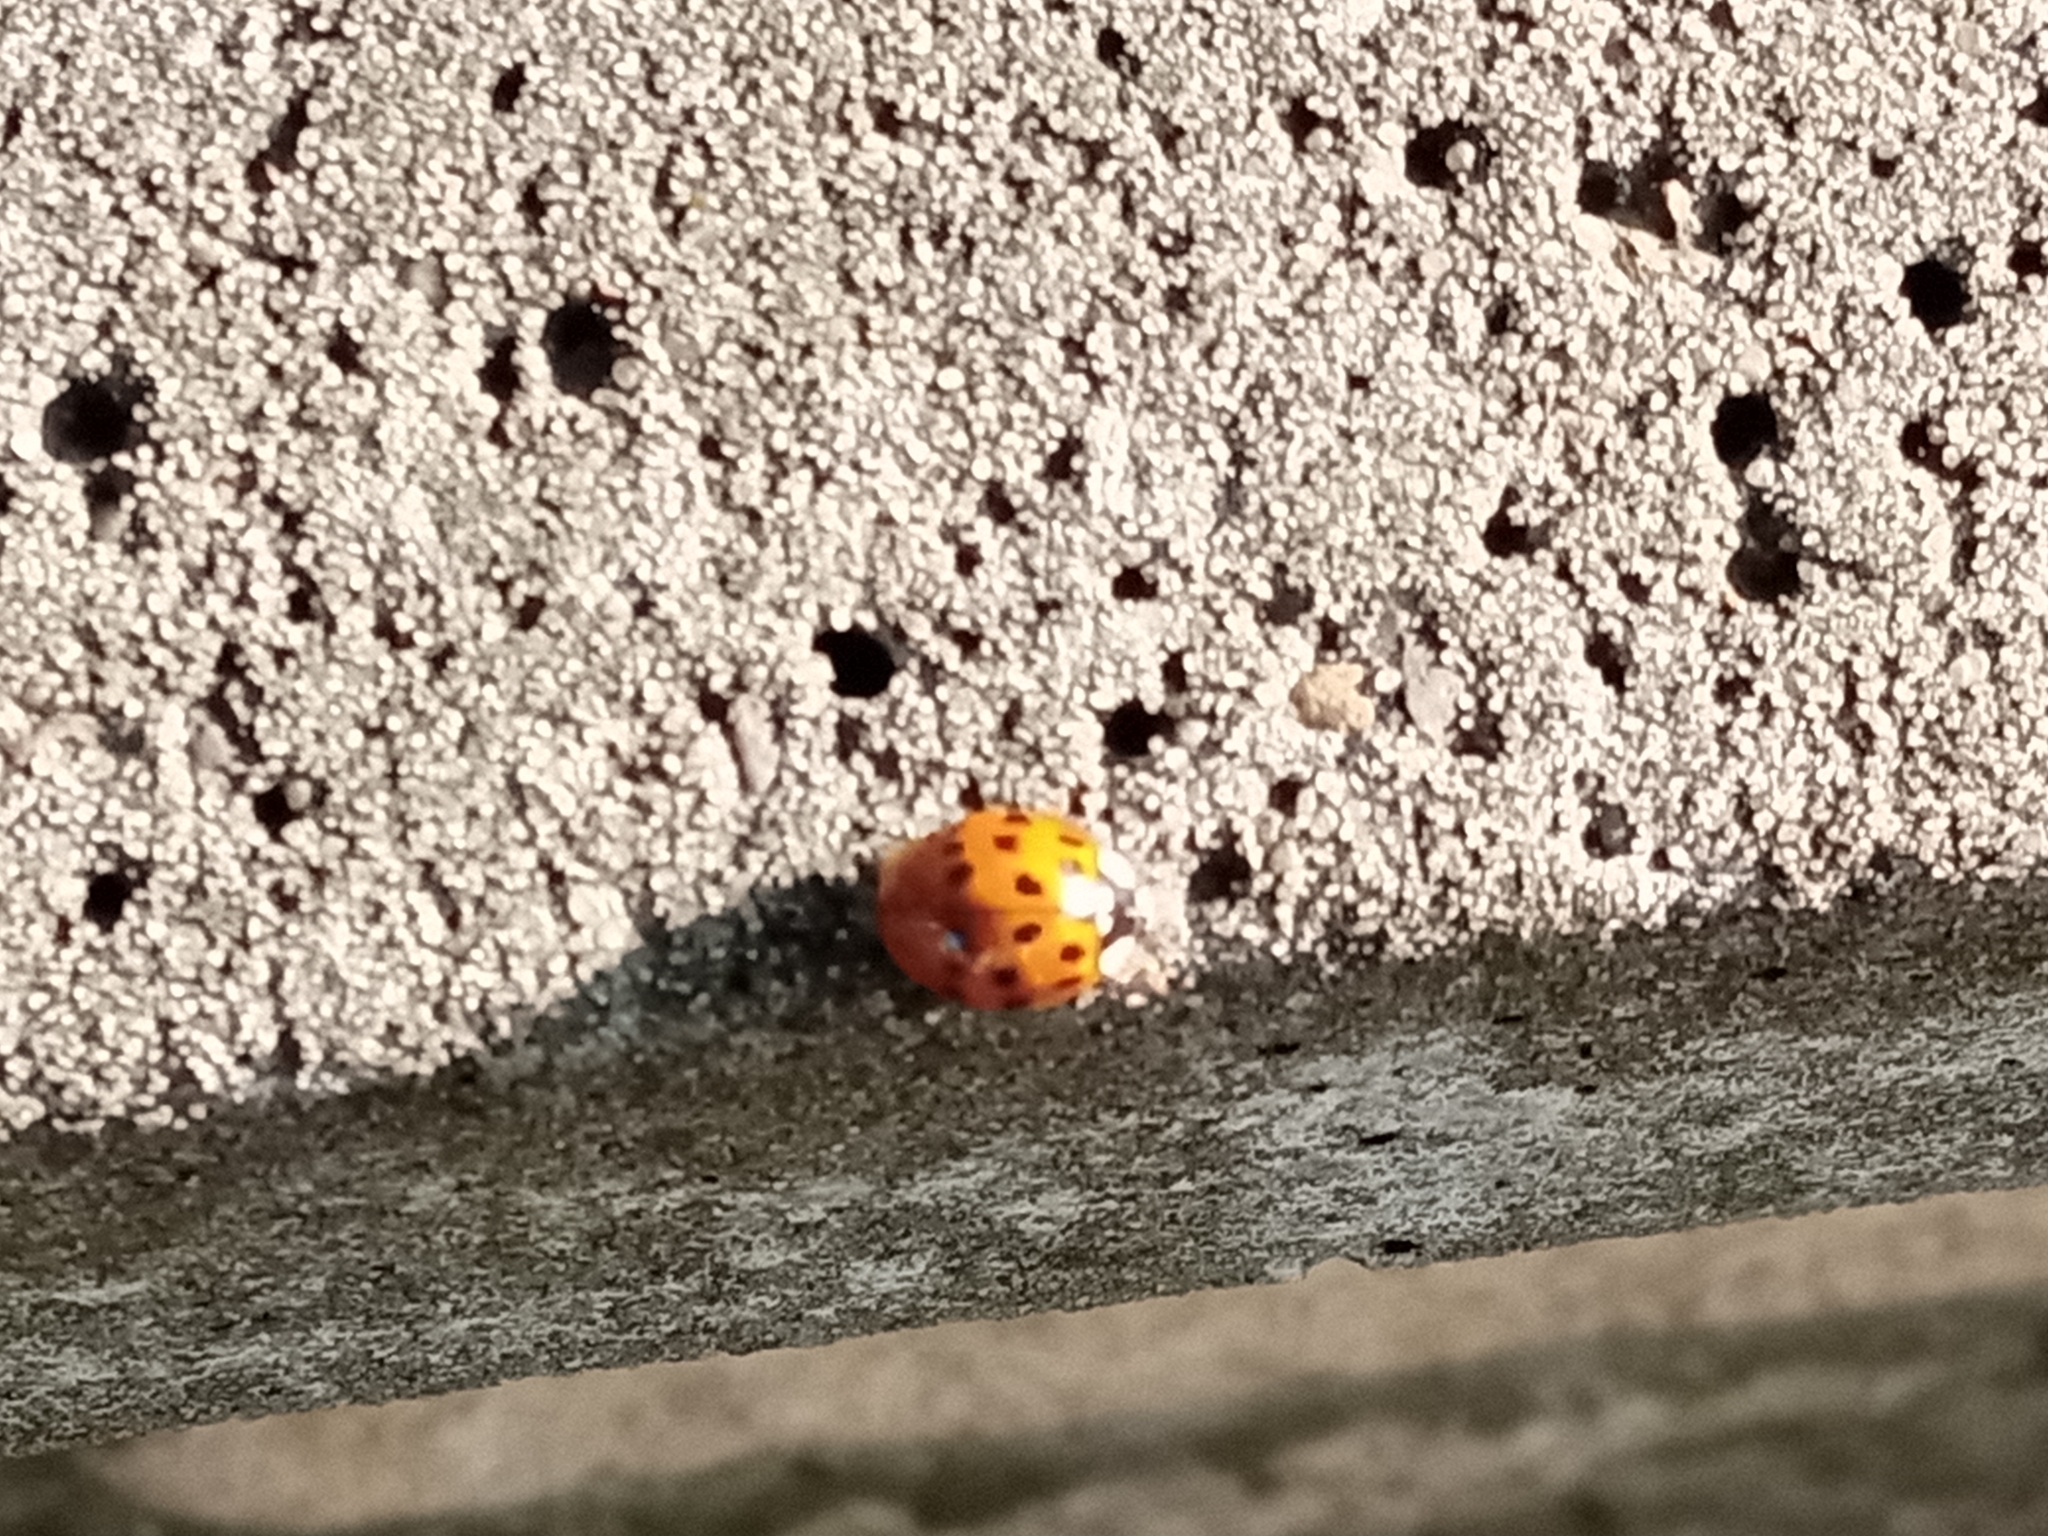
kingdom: Animalia
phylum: Arthropoda
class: Insecta
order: Coleoptera
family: Coccinellidae
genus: Harmonia
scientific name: Harmonia axyridis
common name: Harlequin ladybird
